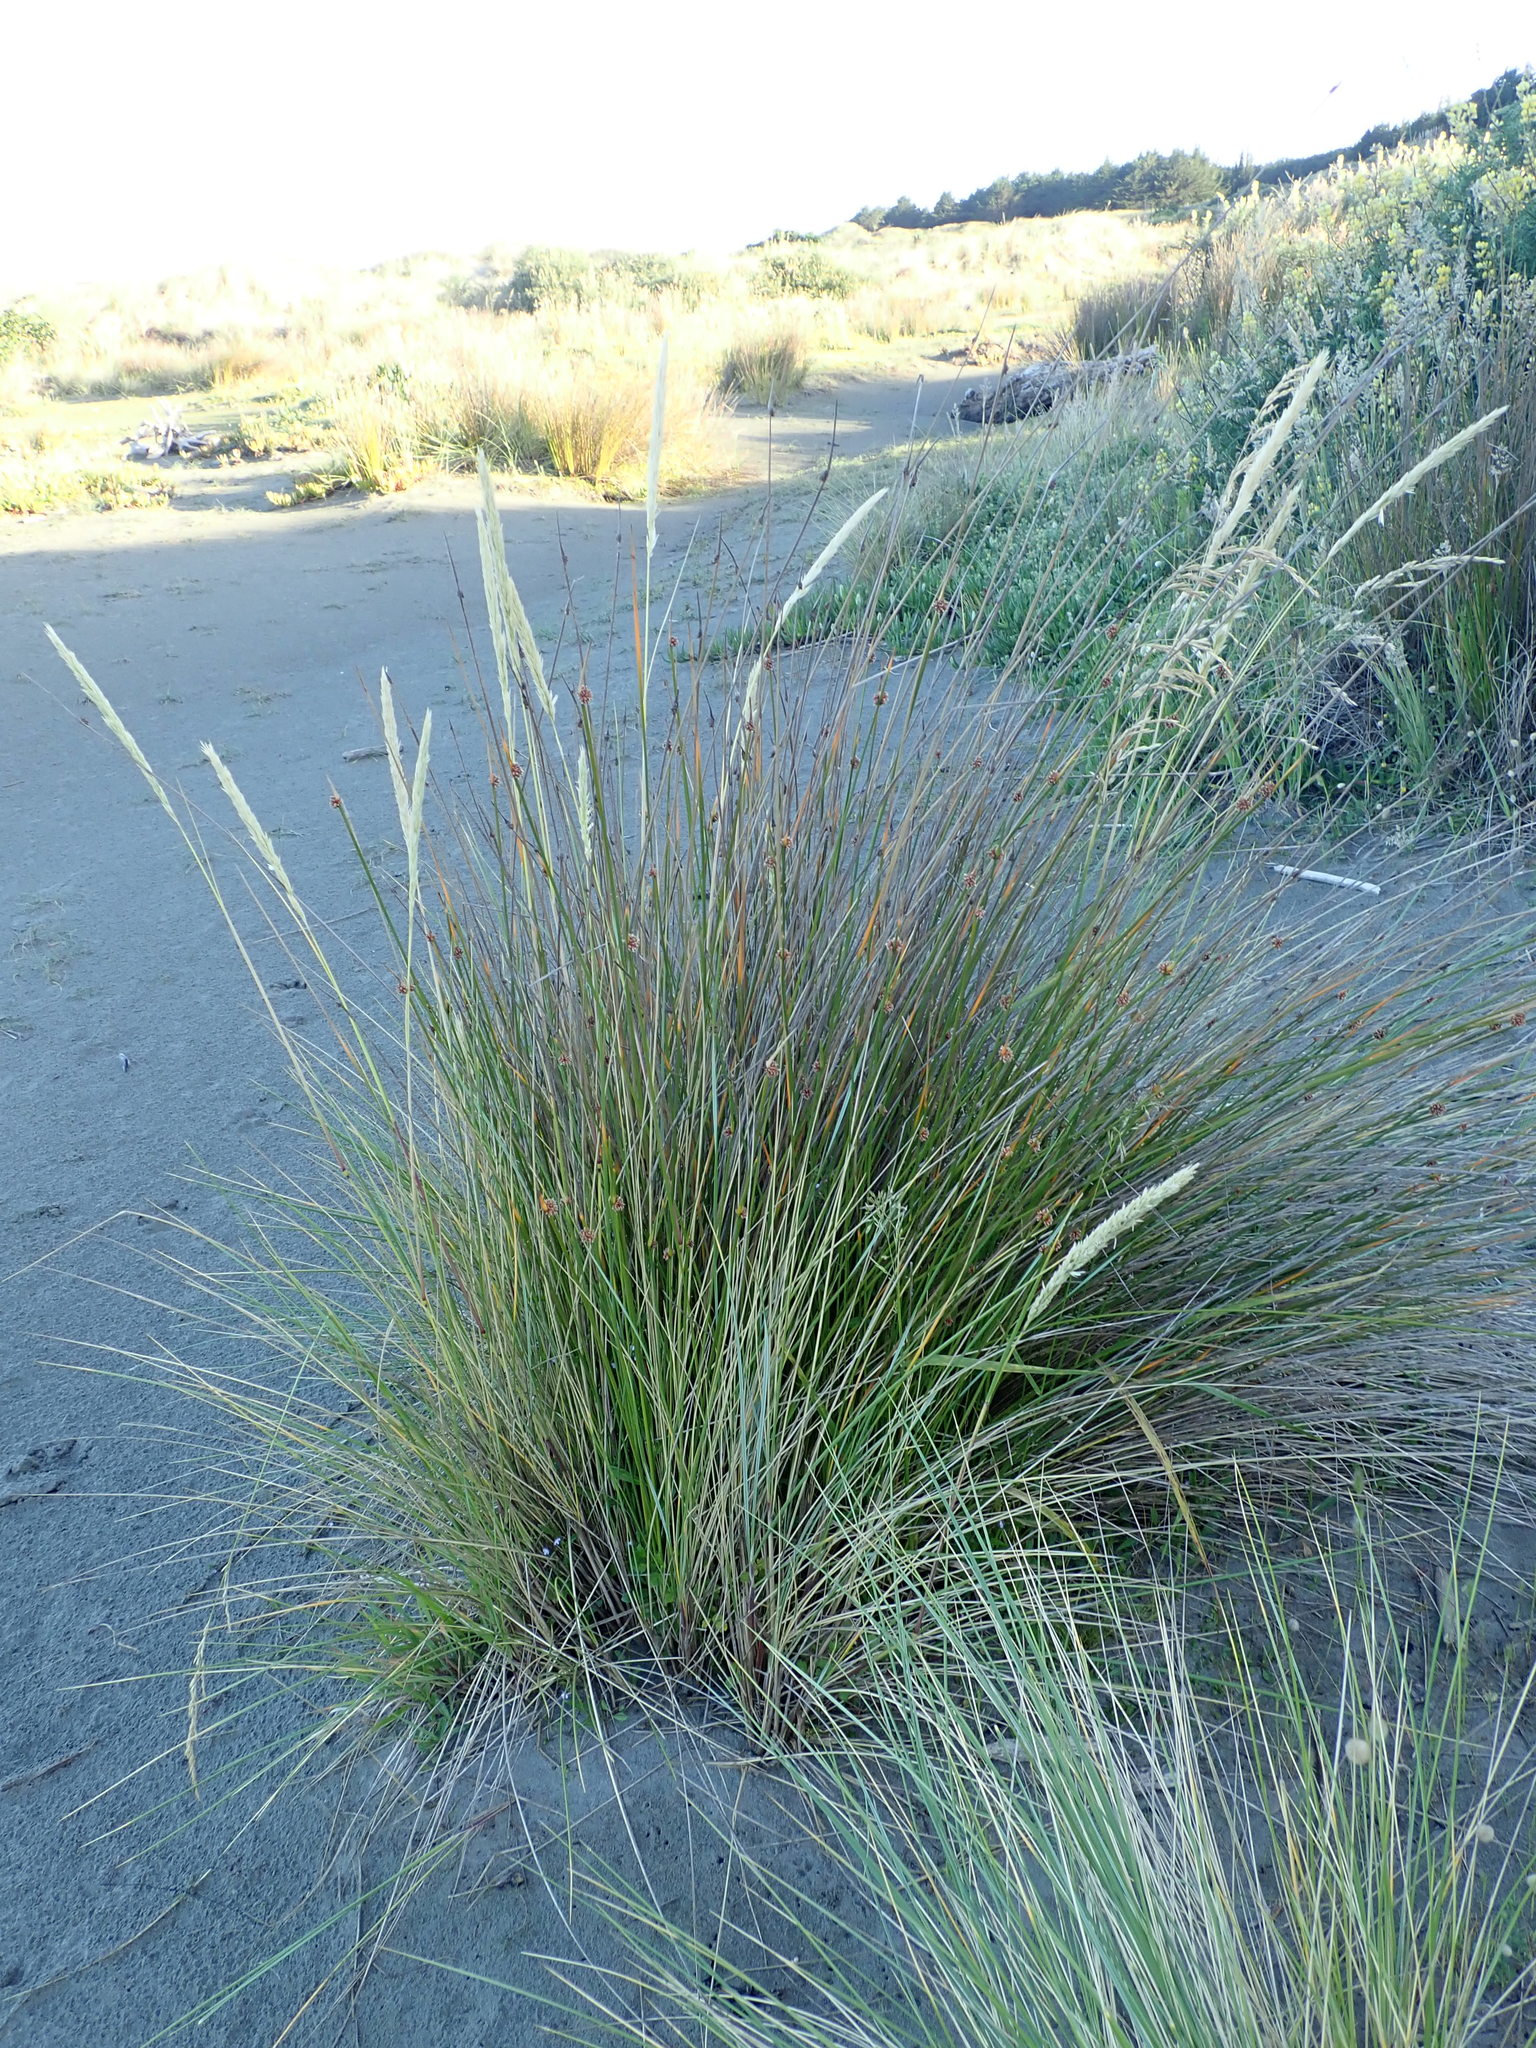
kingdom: Plantae
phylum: Tracheophyta
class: Liliopsida
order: Poales
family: Cyperaceae
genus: Ficinia
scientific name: Ficinia nodosa
